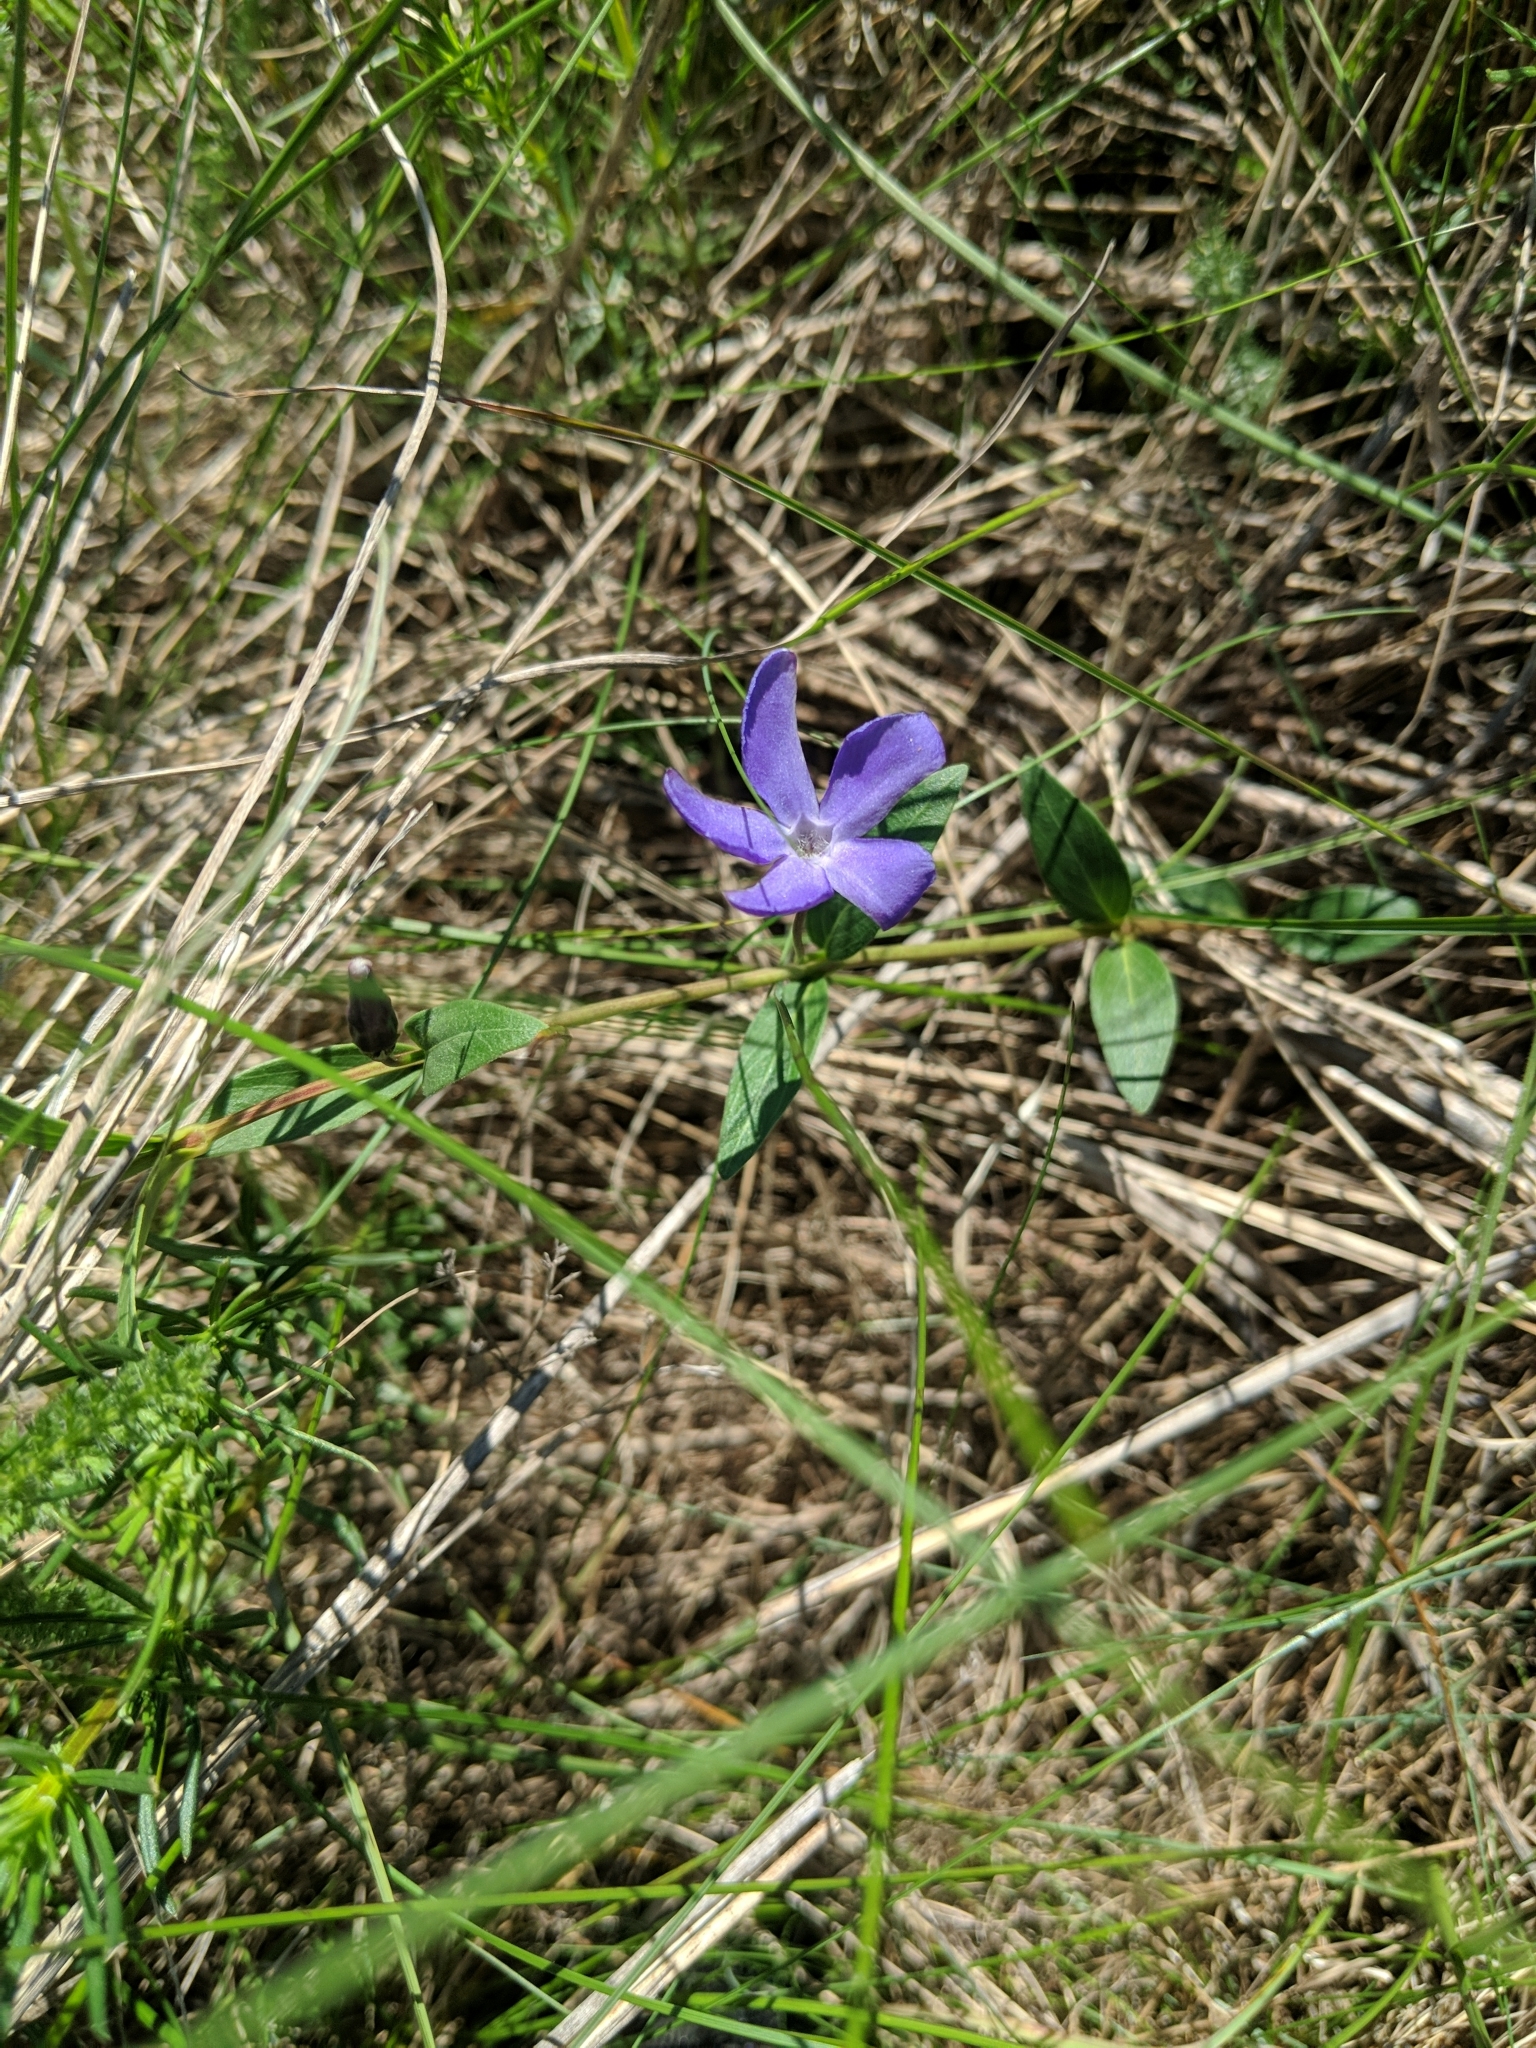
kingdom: Plantae
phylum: Tracheophyta
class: Magnoliopsida
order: Gentianales
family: Apocynaceae
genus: Vinca
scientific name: Vinca herbacea
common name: Herbaceous periwinkle
